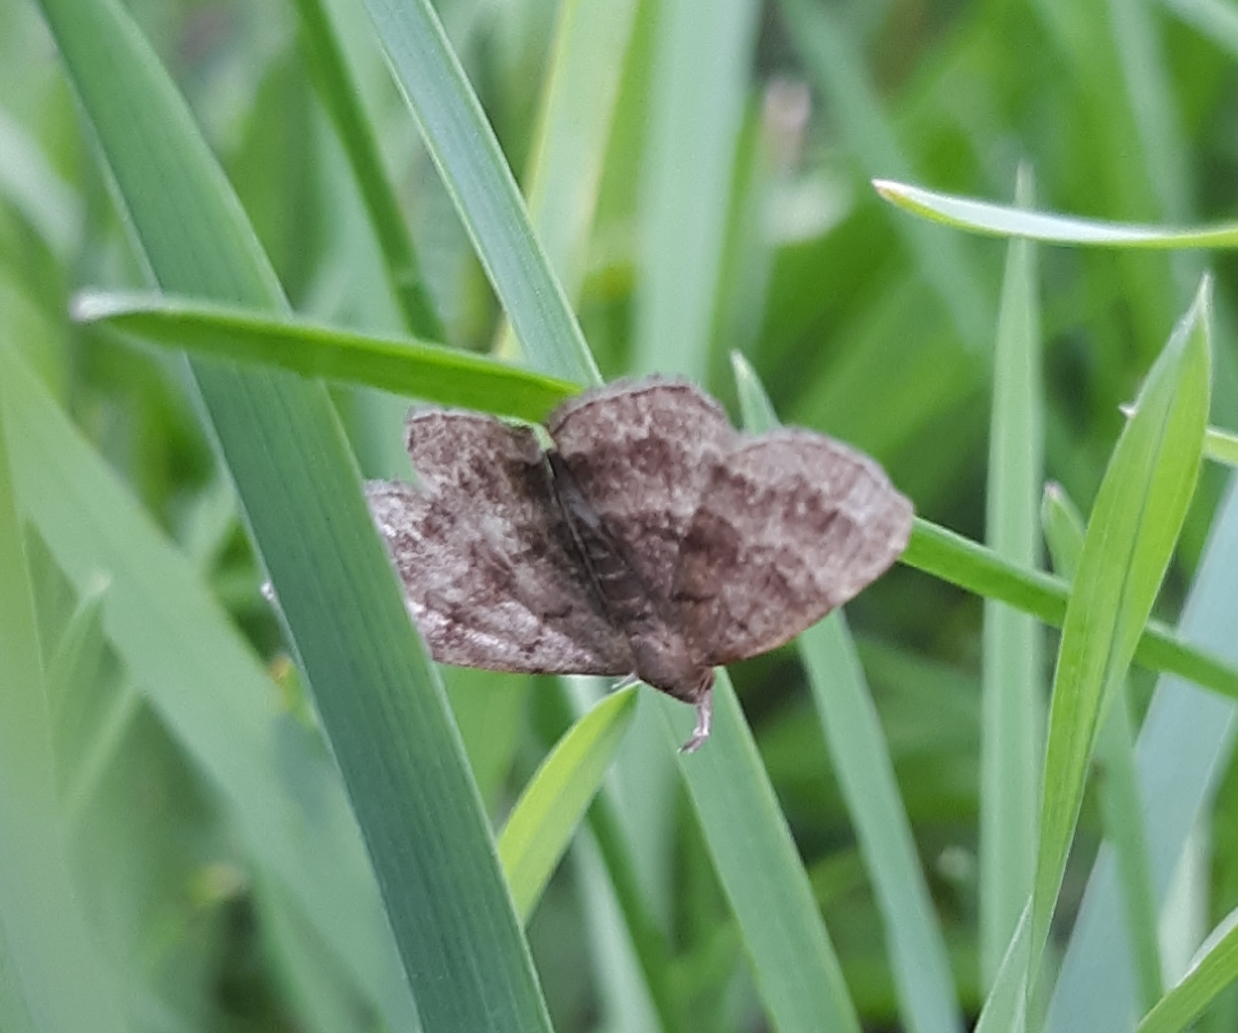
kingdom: Animalia
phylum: Arthropoda
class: Insecta
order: Lepidoptera
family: Erebidae
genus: Phalaenostola
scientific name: Phalaenostola larentioides
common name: Black-banded owlet
